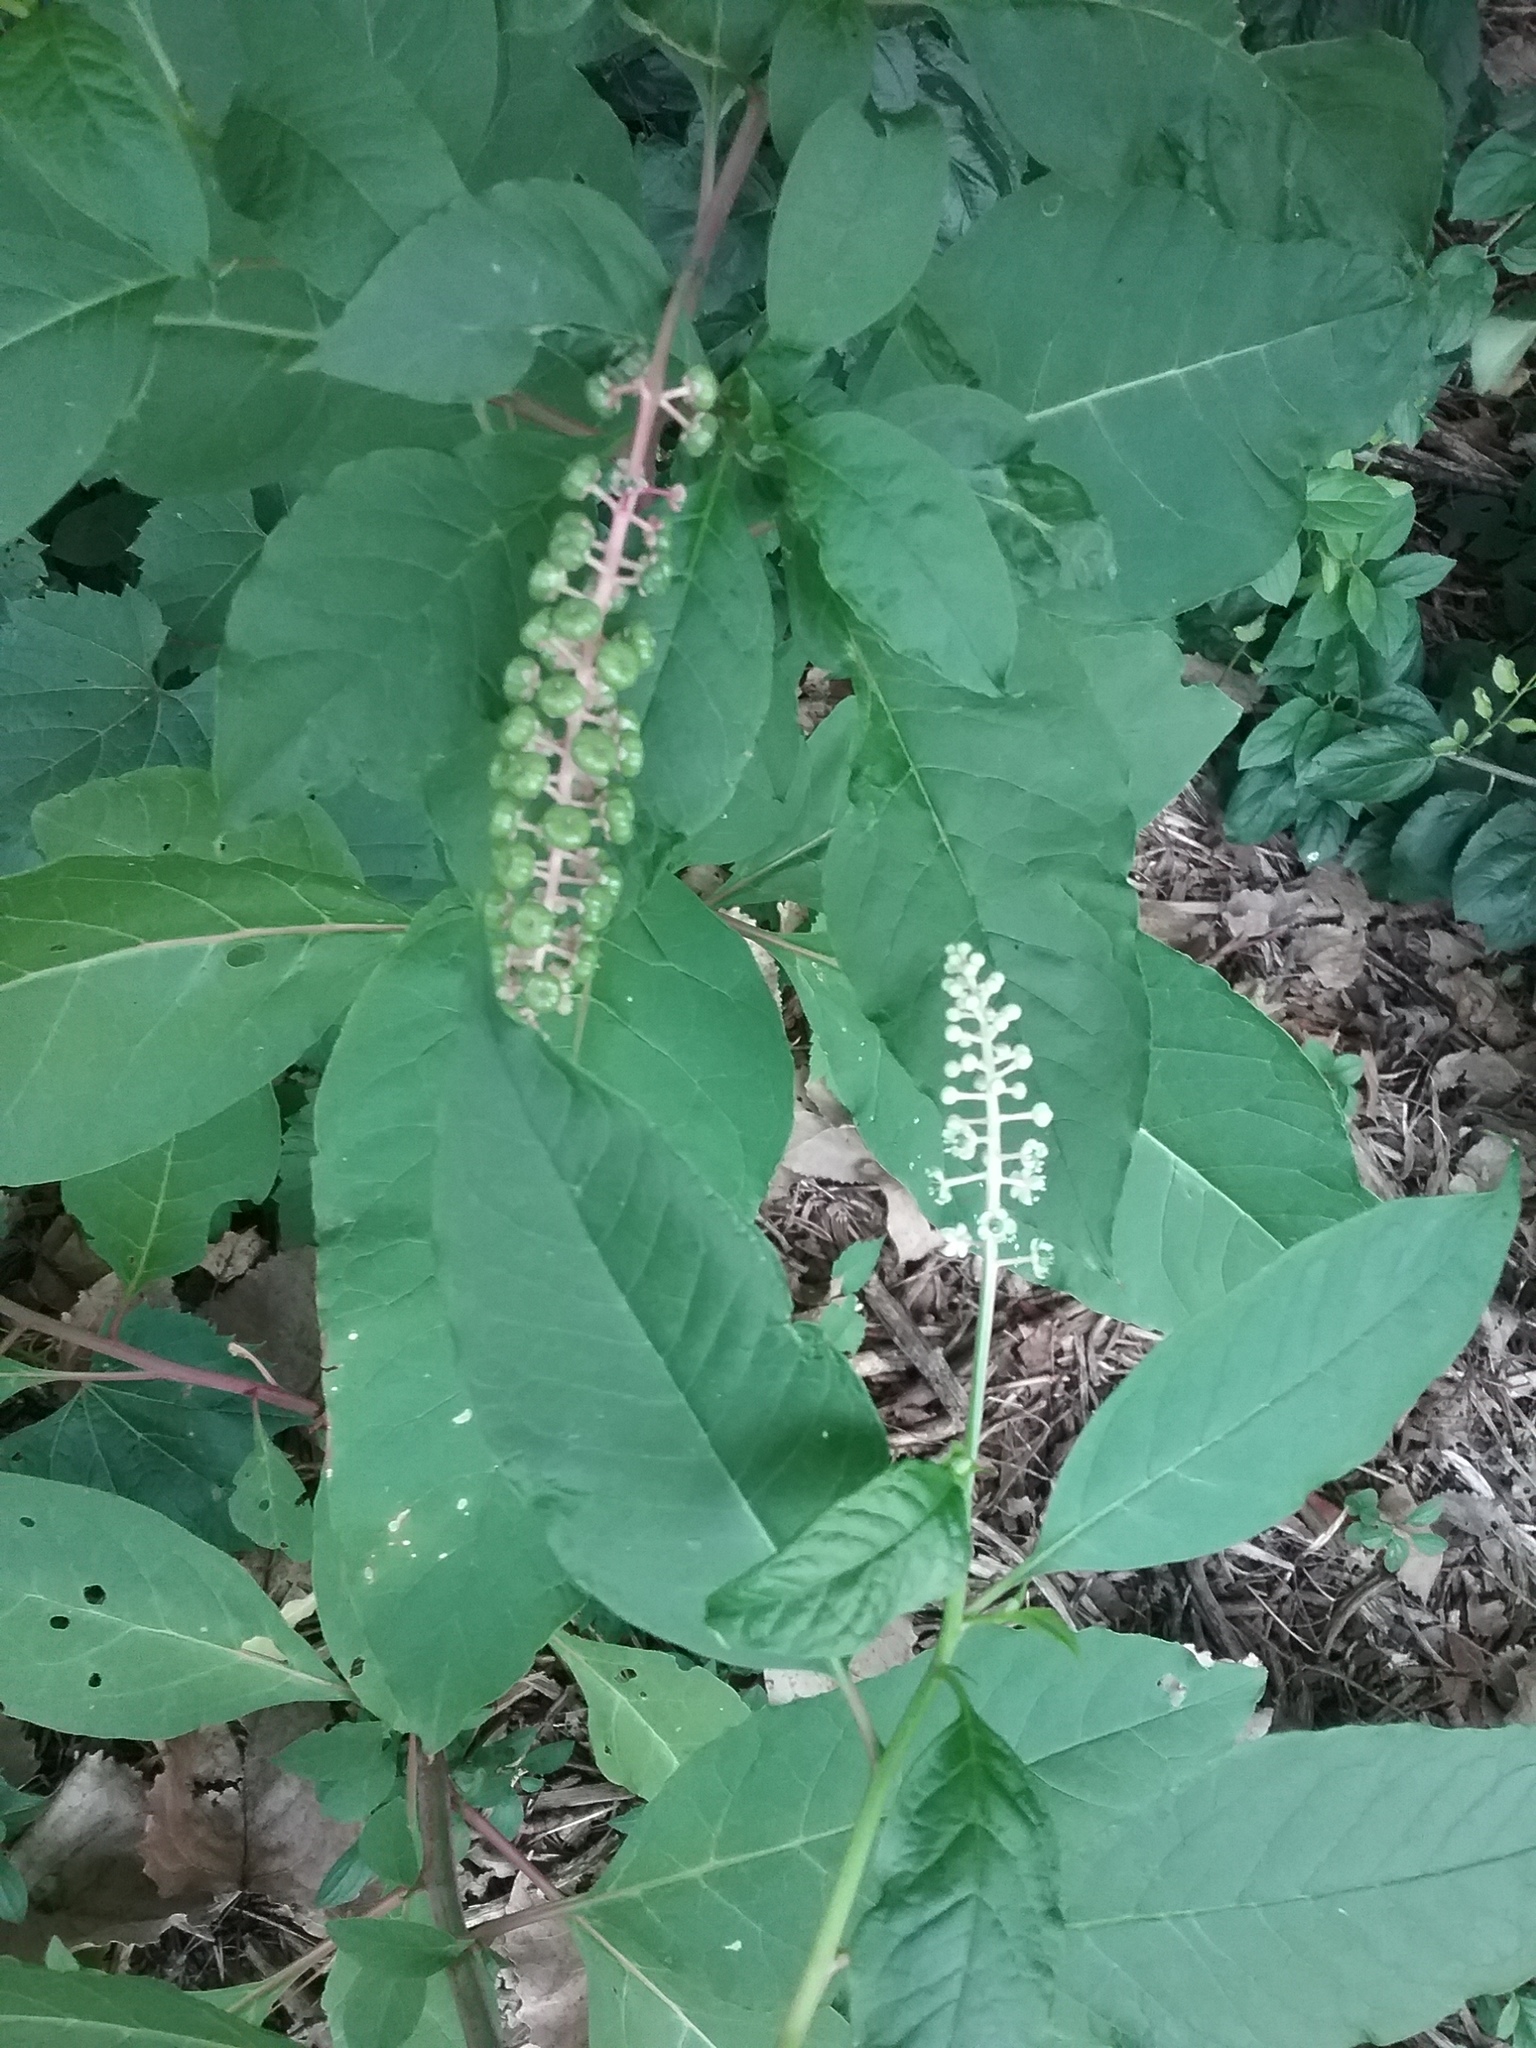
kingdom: Plantae
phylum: Tracheophyta
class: Magnoliopsida
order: Caryophyllales
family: Phytolaccaceae
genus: Phytolacca
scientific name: Phytolacca americana
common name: American pokeweed
